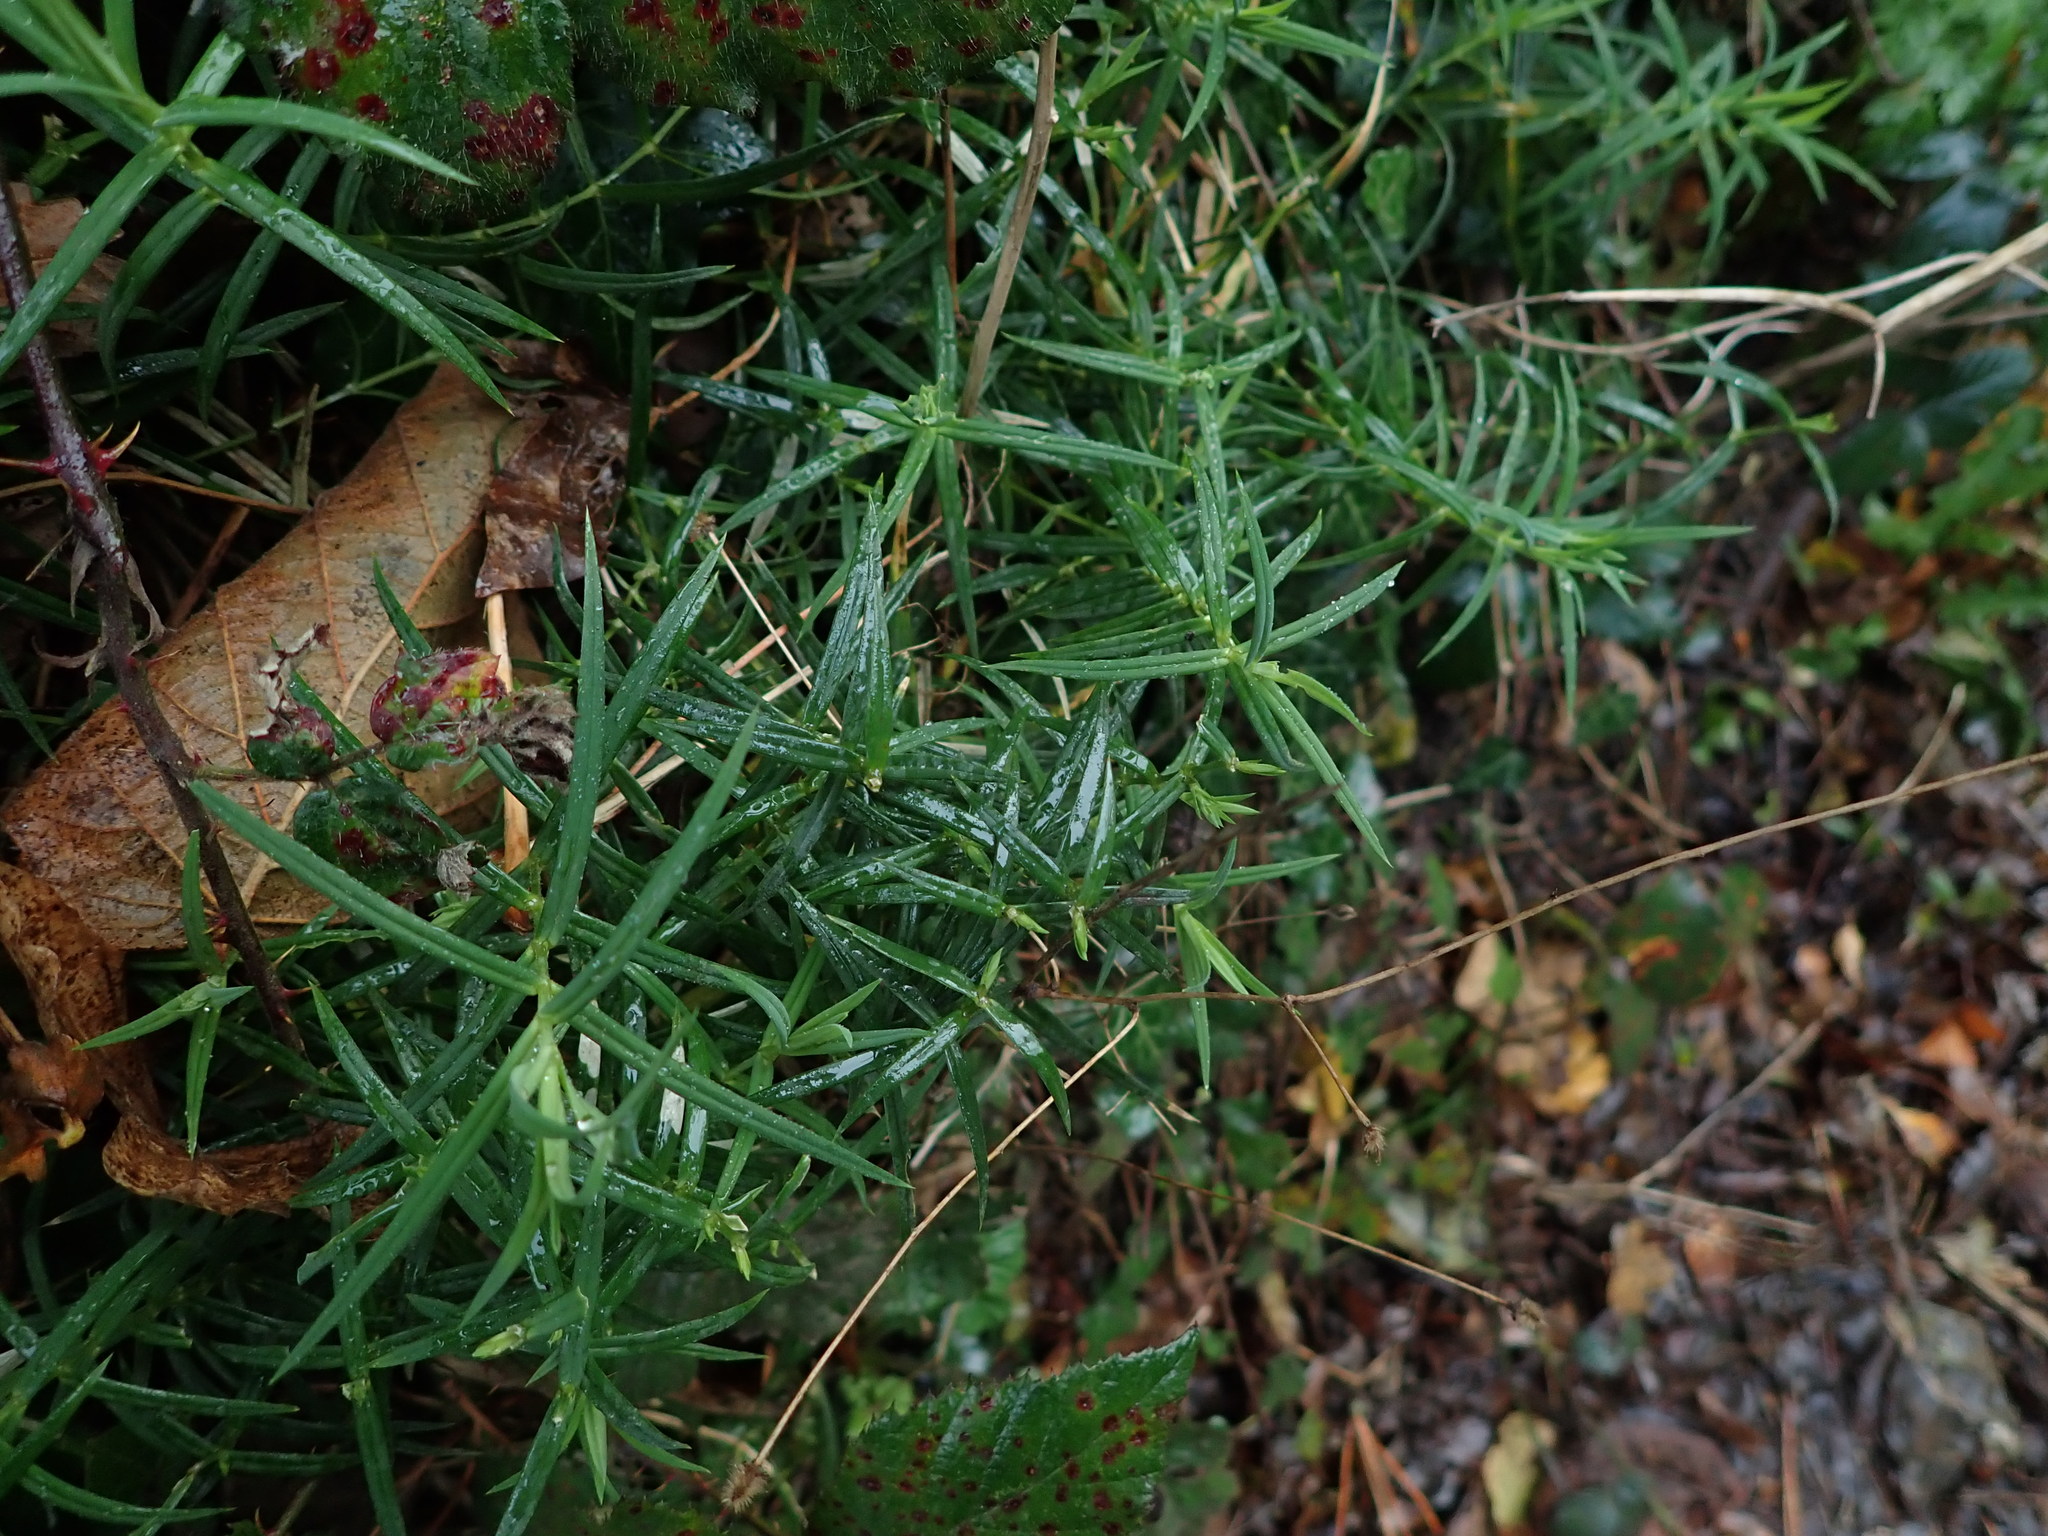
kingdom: Plantae
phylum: Tracheophyta
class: Magnoliopsida
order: Caryophyllales
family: Caryophyllaceae
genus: Rabelera
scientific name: Rabelera holostea
